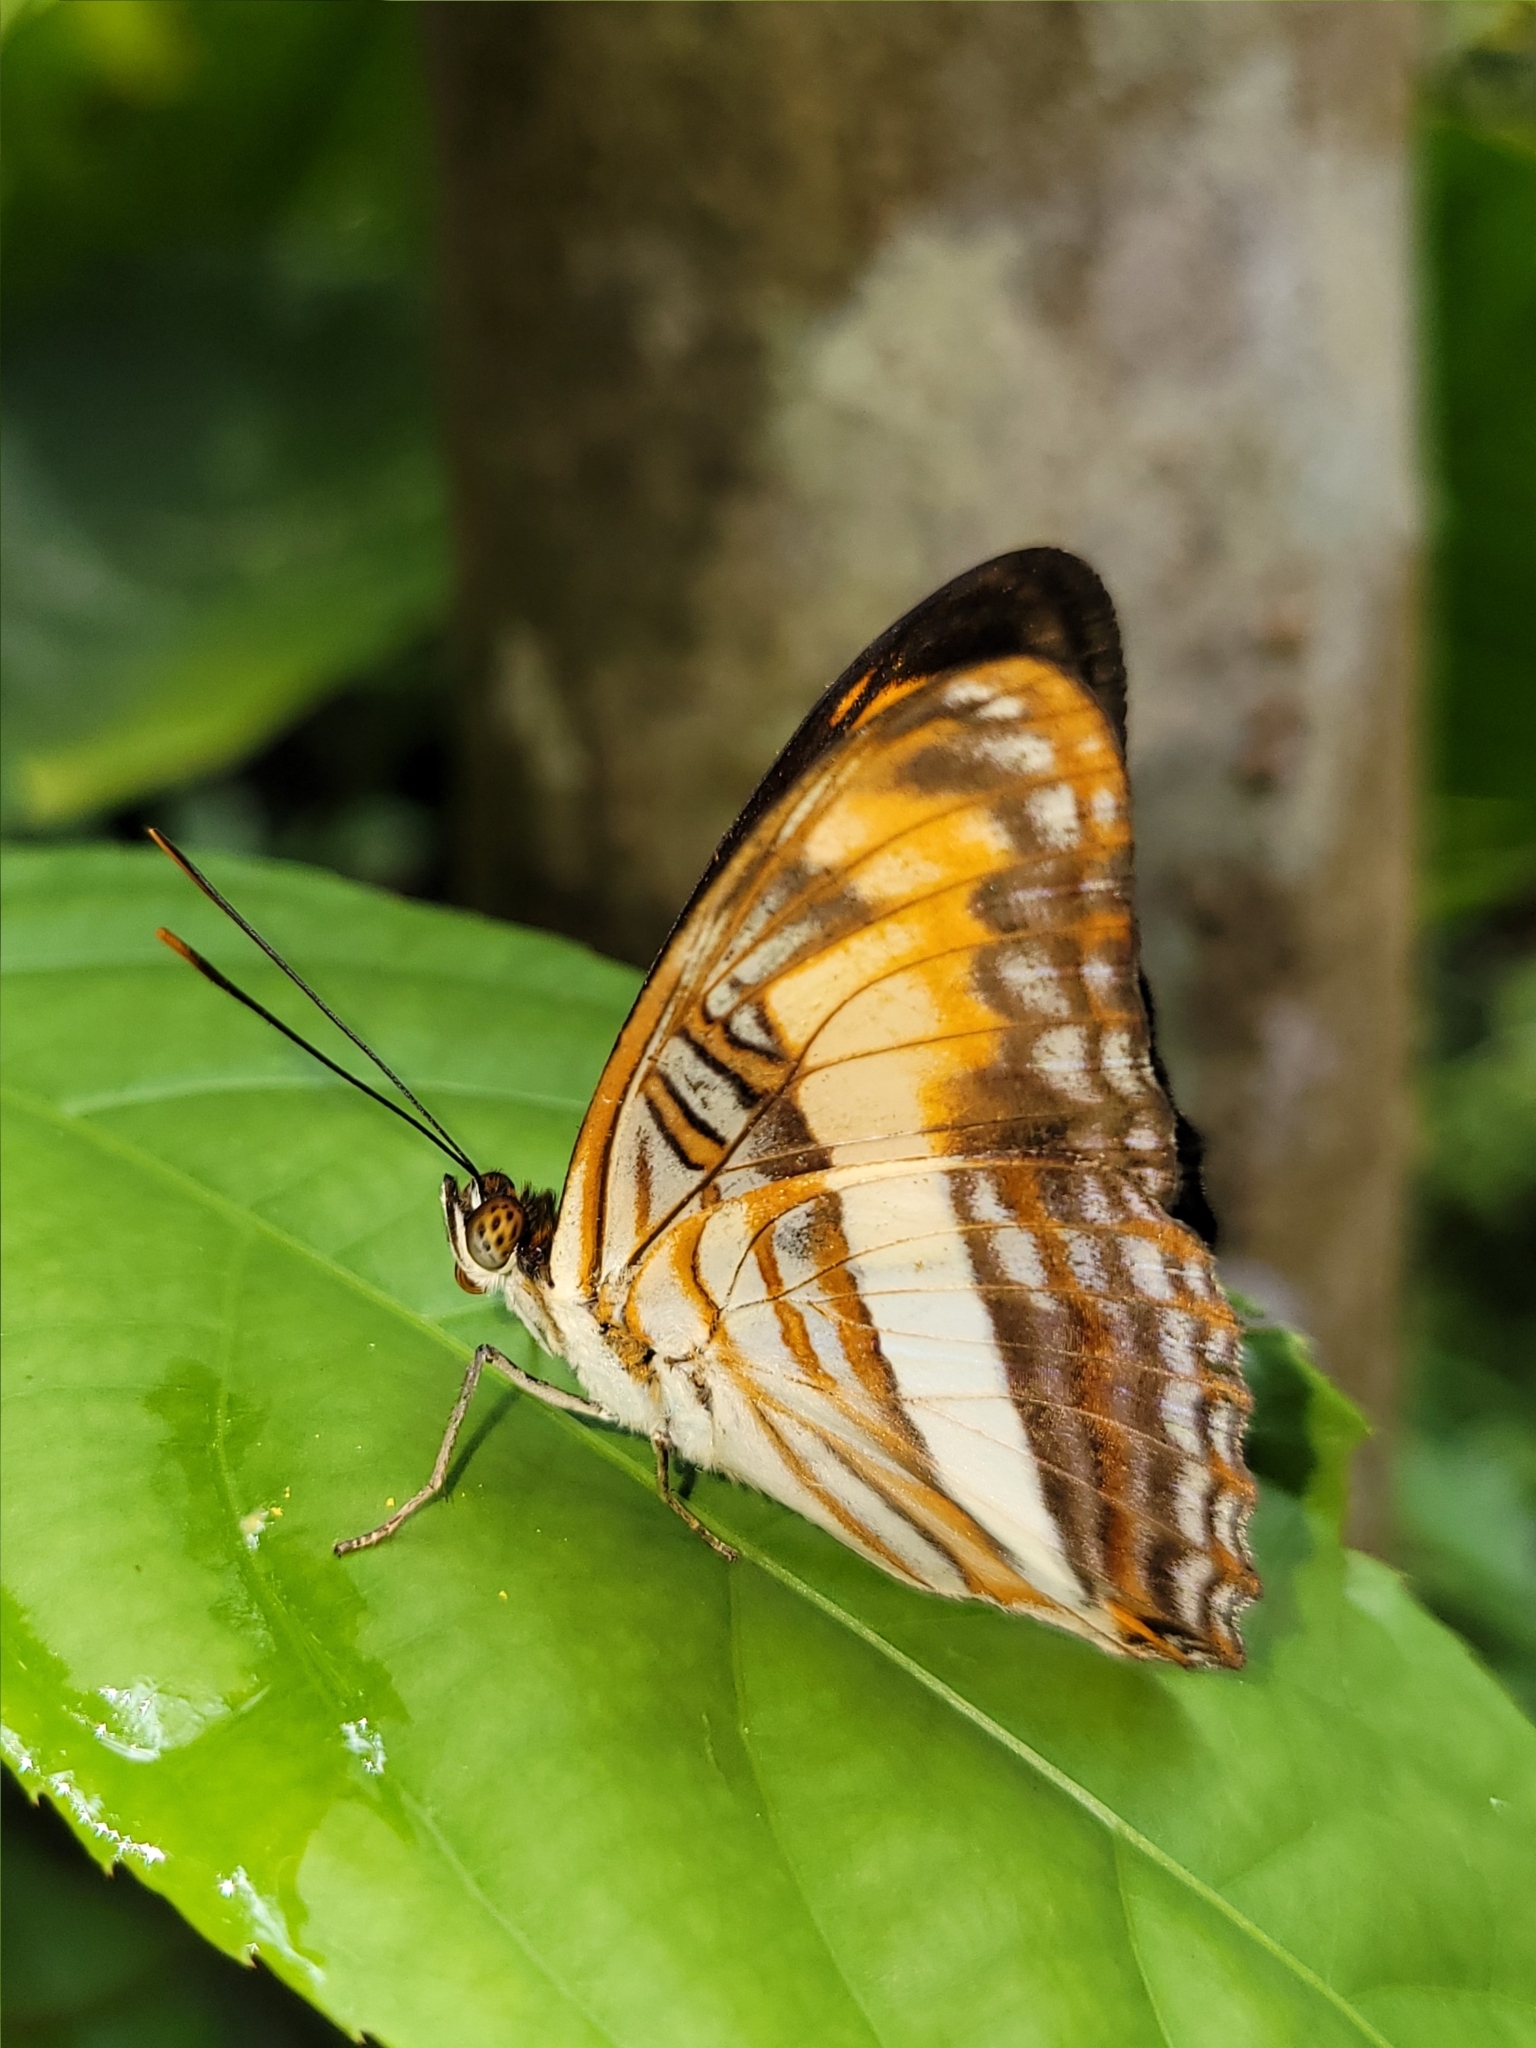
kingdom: Animalia
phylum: Arthropoda
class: Insecta
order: Lepidoptera
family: Nymphalidae
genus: Limenitis
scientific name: Limenitis phliassa
